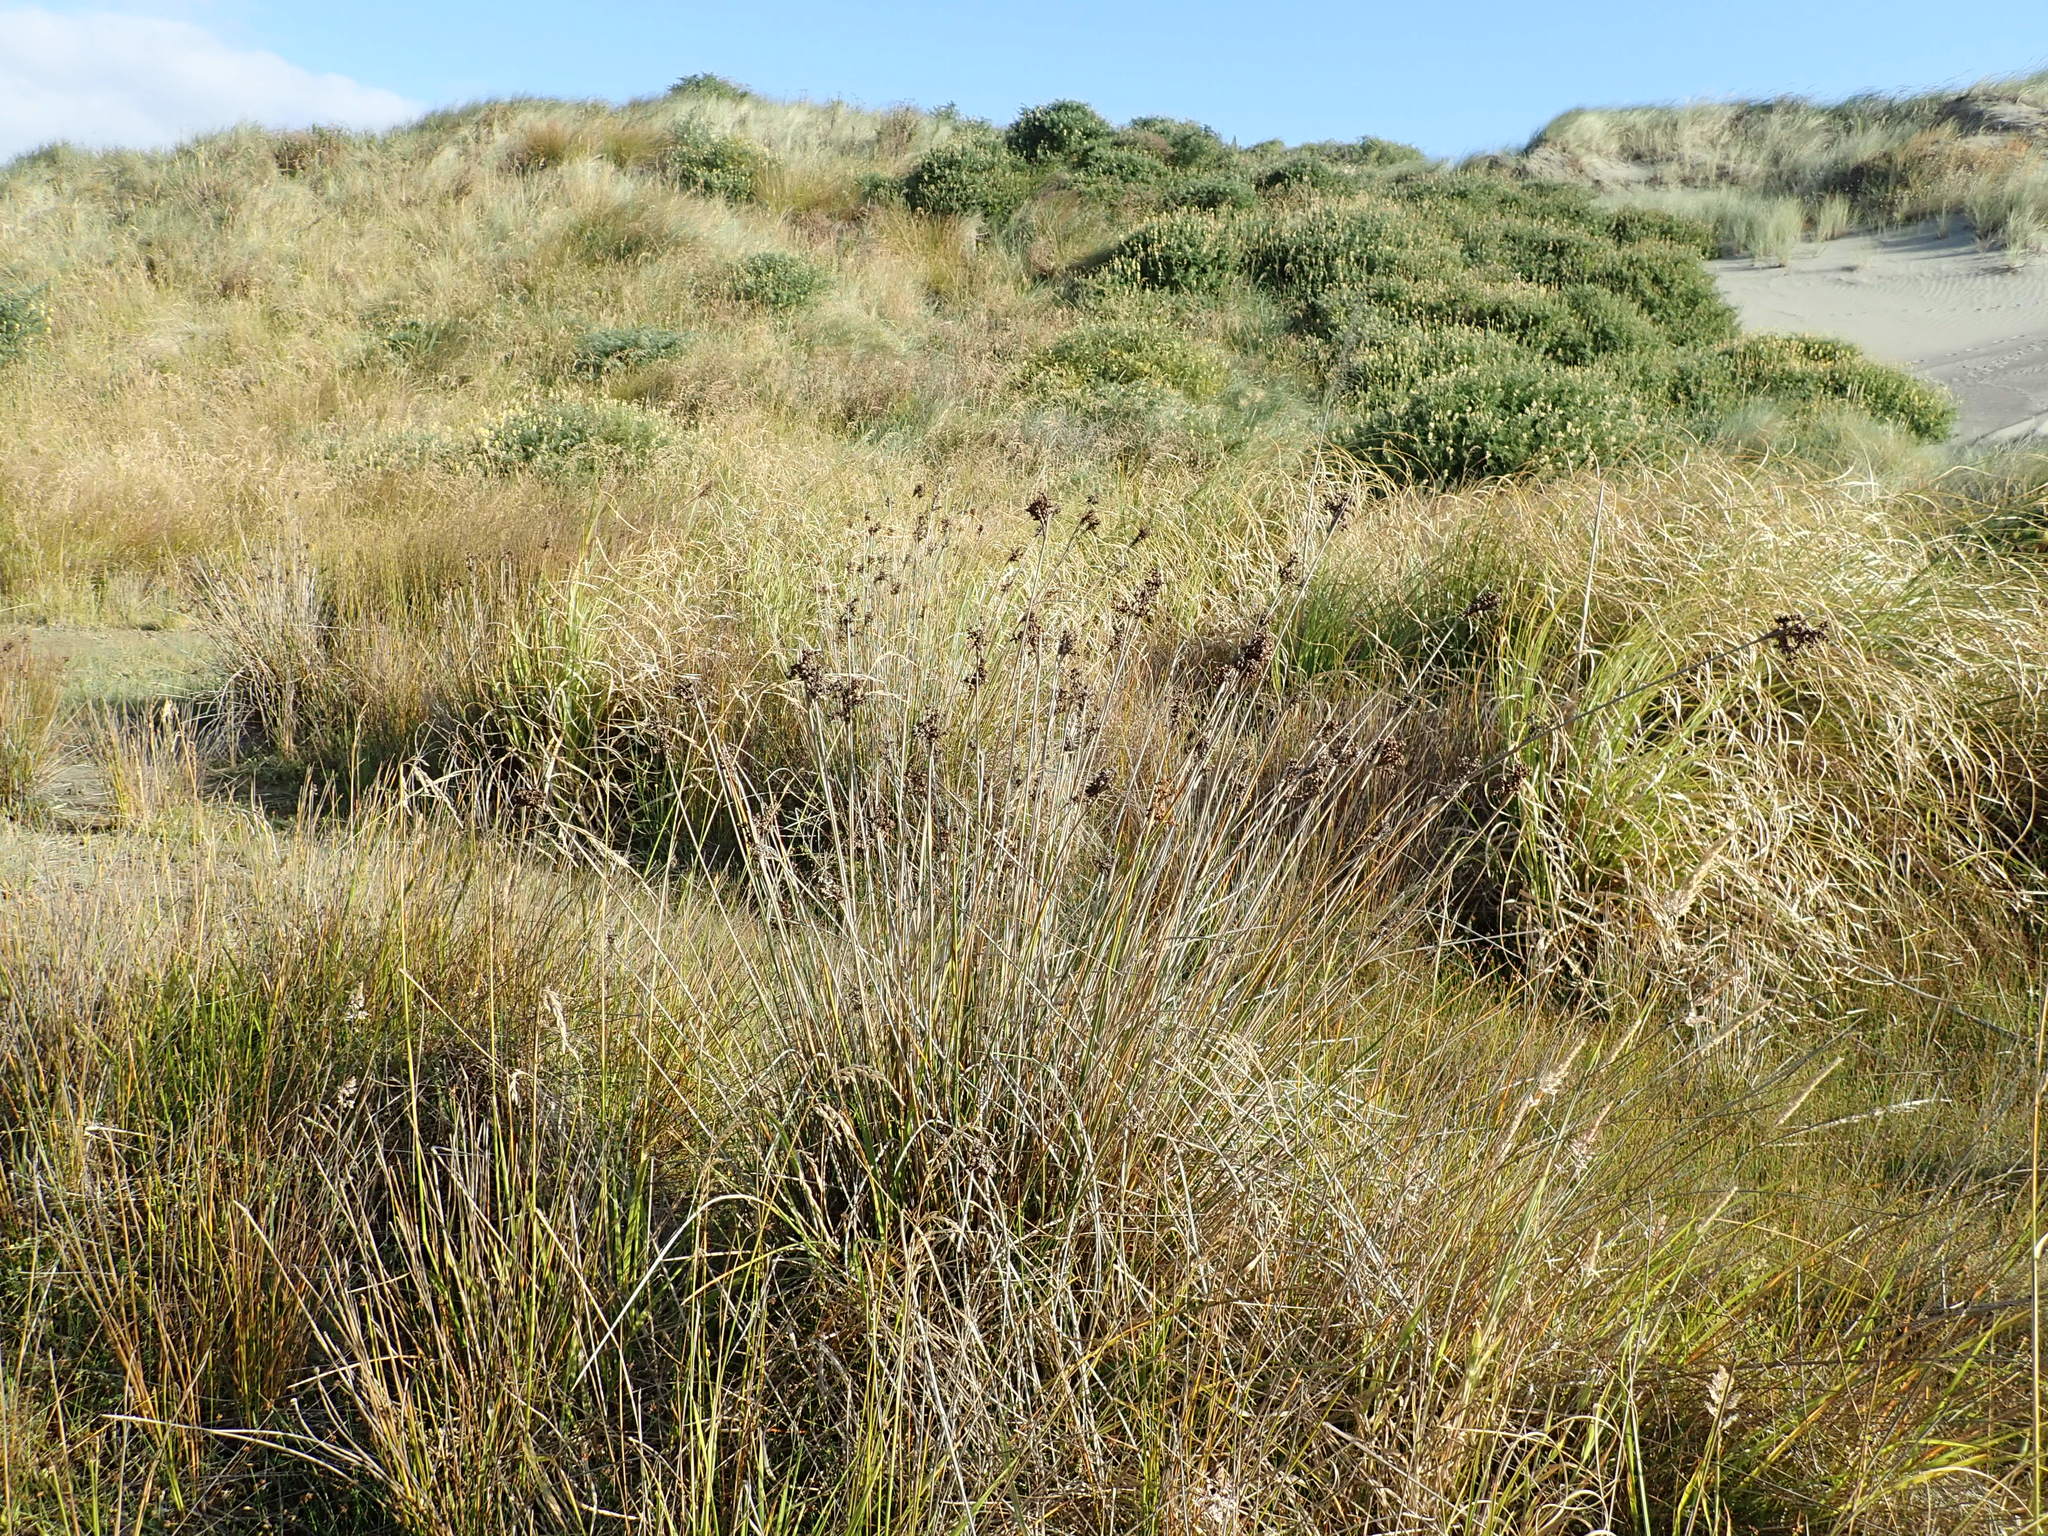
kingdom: Plantae
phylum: Tracheophyta
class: Liliopsida
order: Poales
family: Juncaceae
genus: Juncus
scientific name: Juncus acutus
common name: Sharp rush
